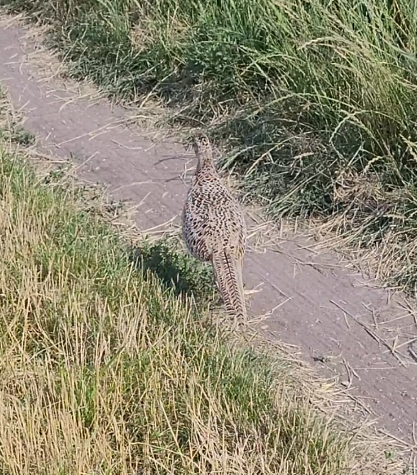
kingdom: Animalia
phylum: Chordata
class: Aves
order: Galliformes
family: Phasianidae
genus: Phasianus
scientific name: Phasianus colchicus
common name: Common pheasant
